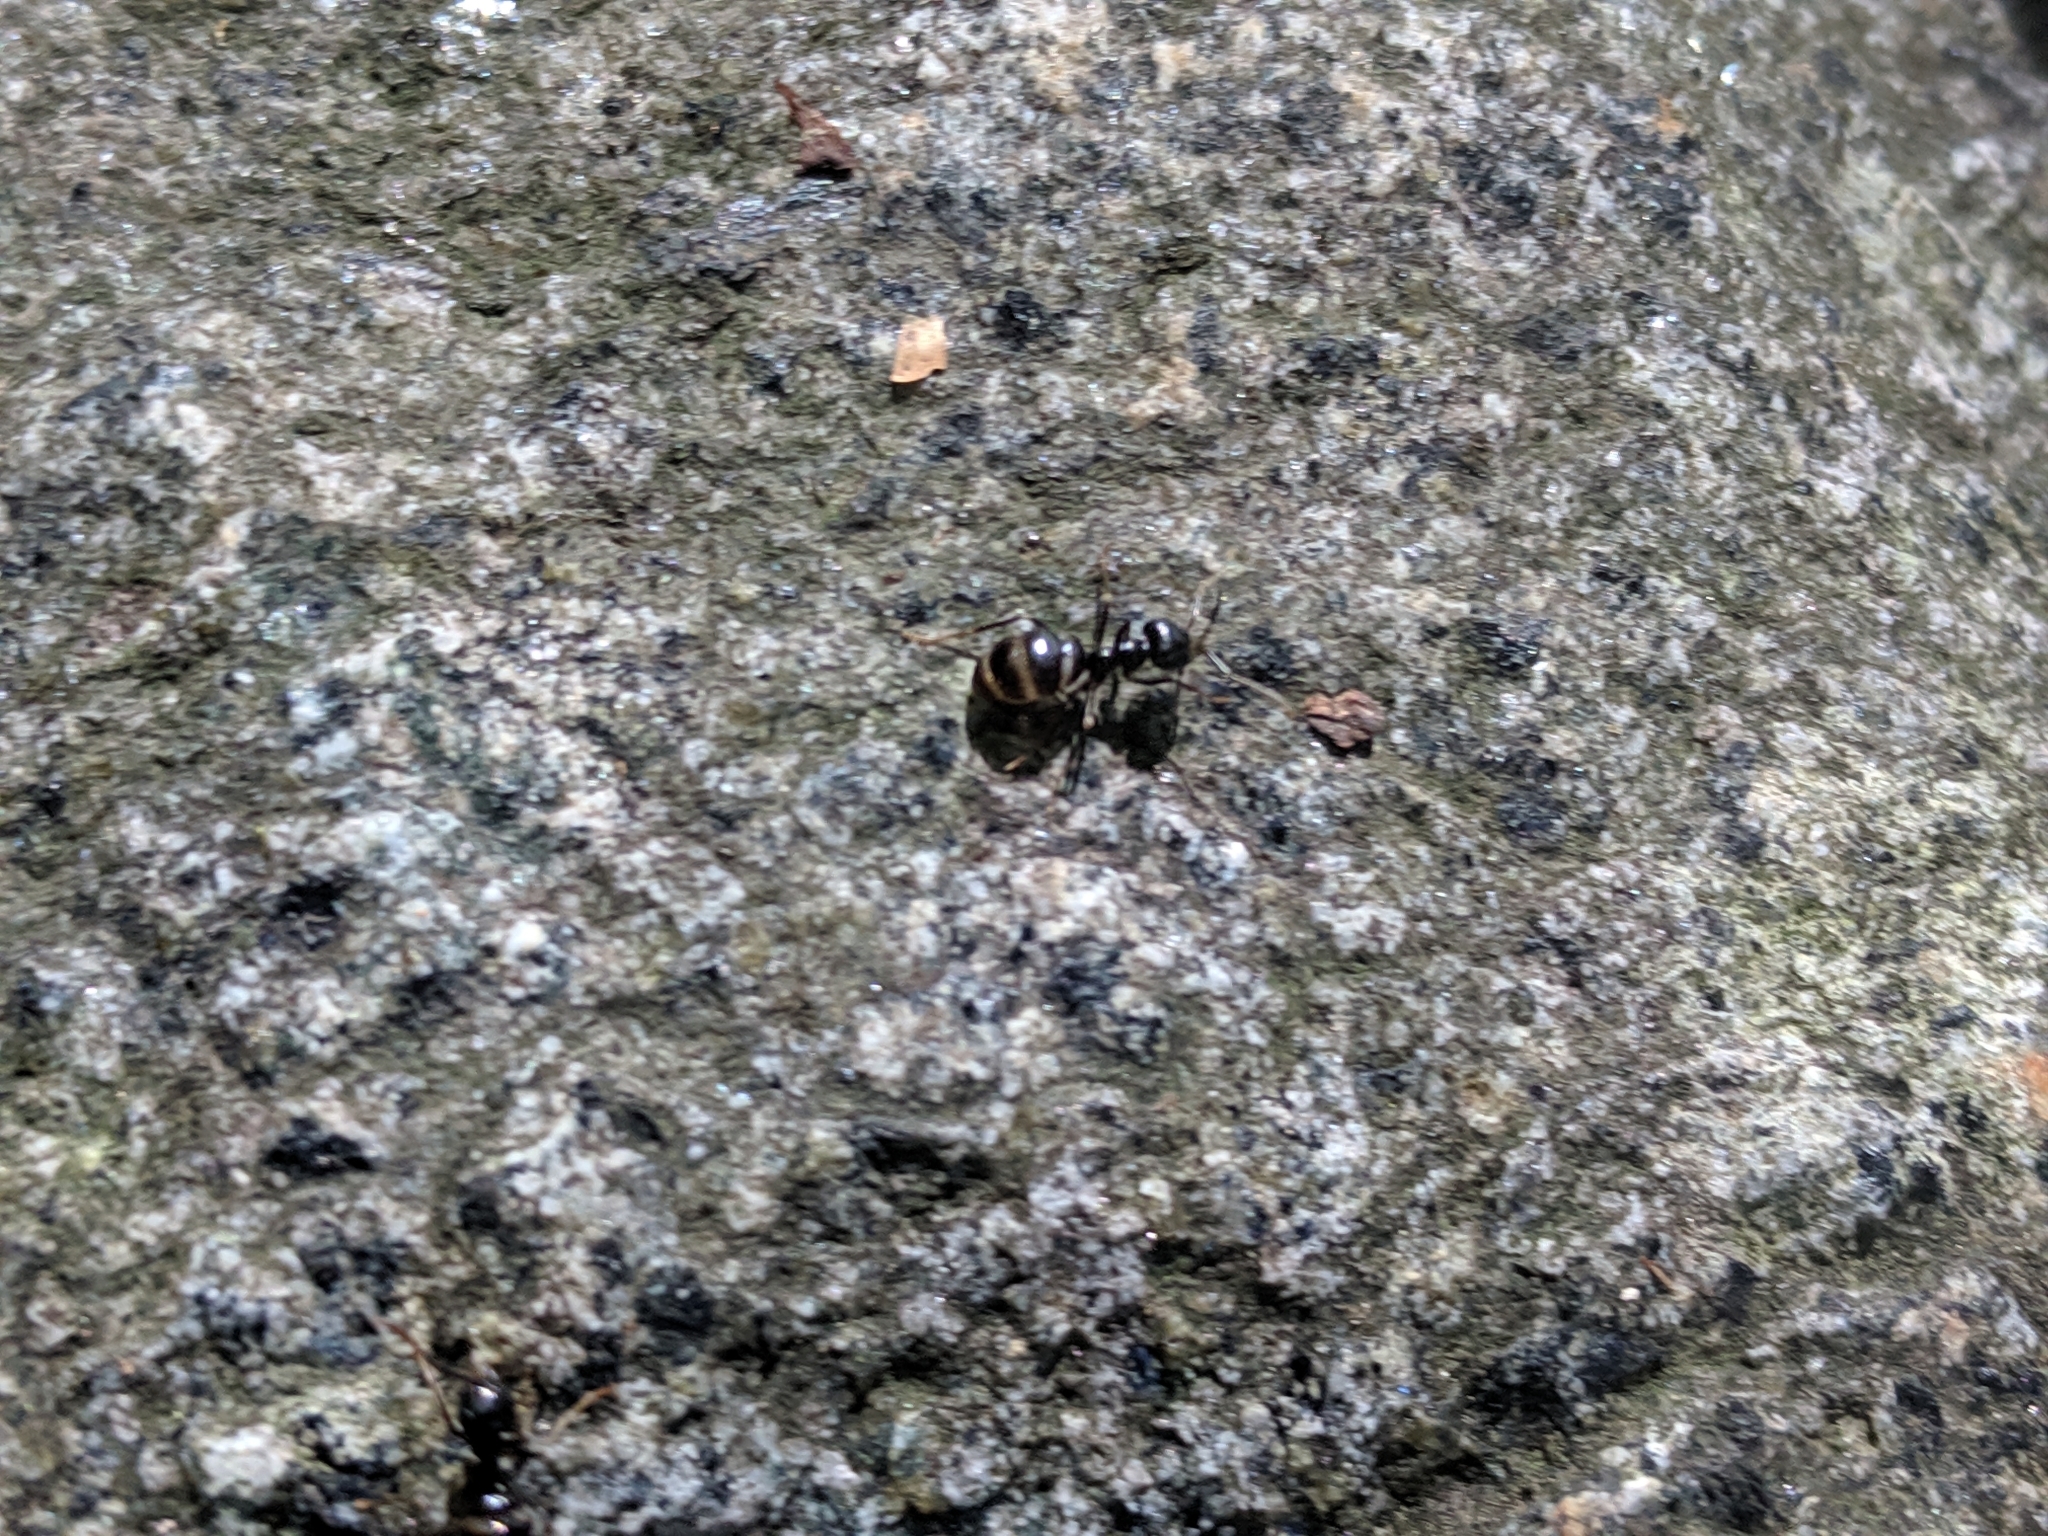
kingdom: Animalia
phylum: Arthropoda
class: Insecta
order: Hymenoptera
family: Formicidae
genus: Lasius
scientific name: Lasius fuliginosus
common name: Jet ant
